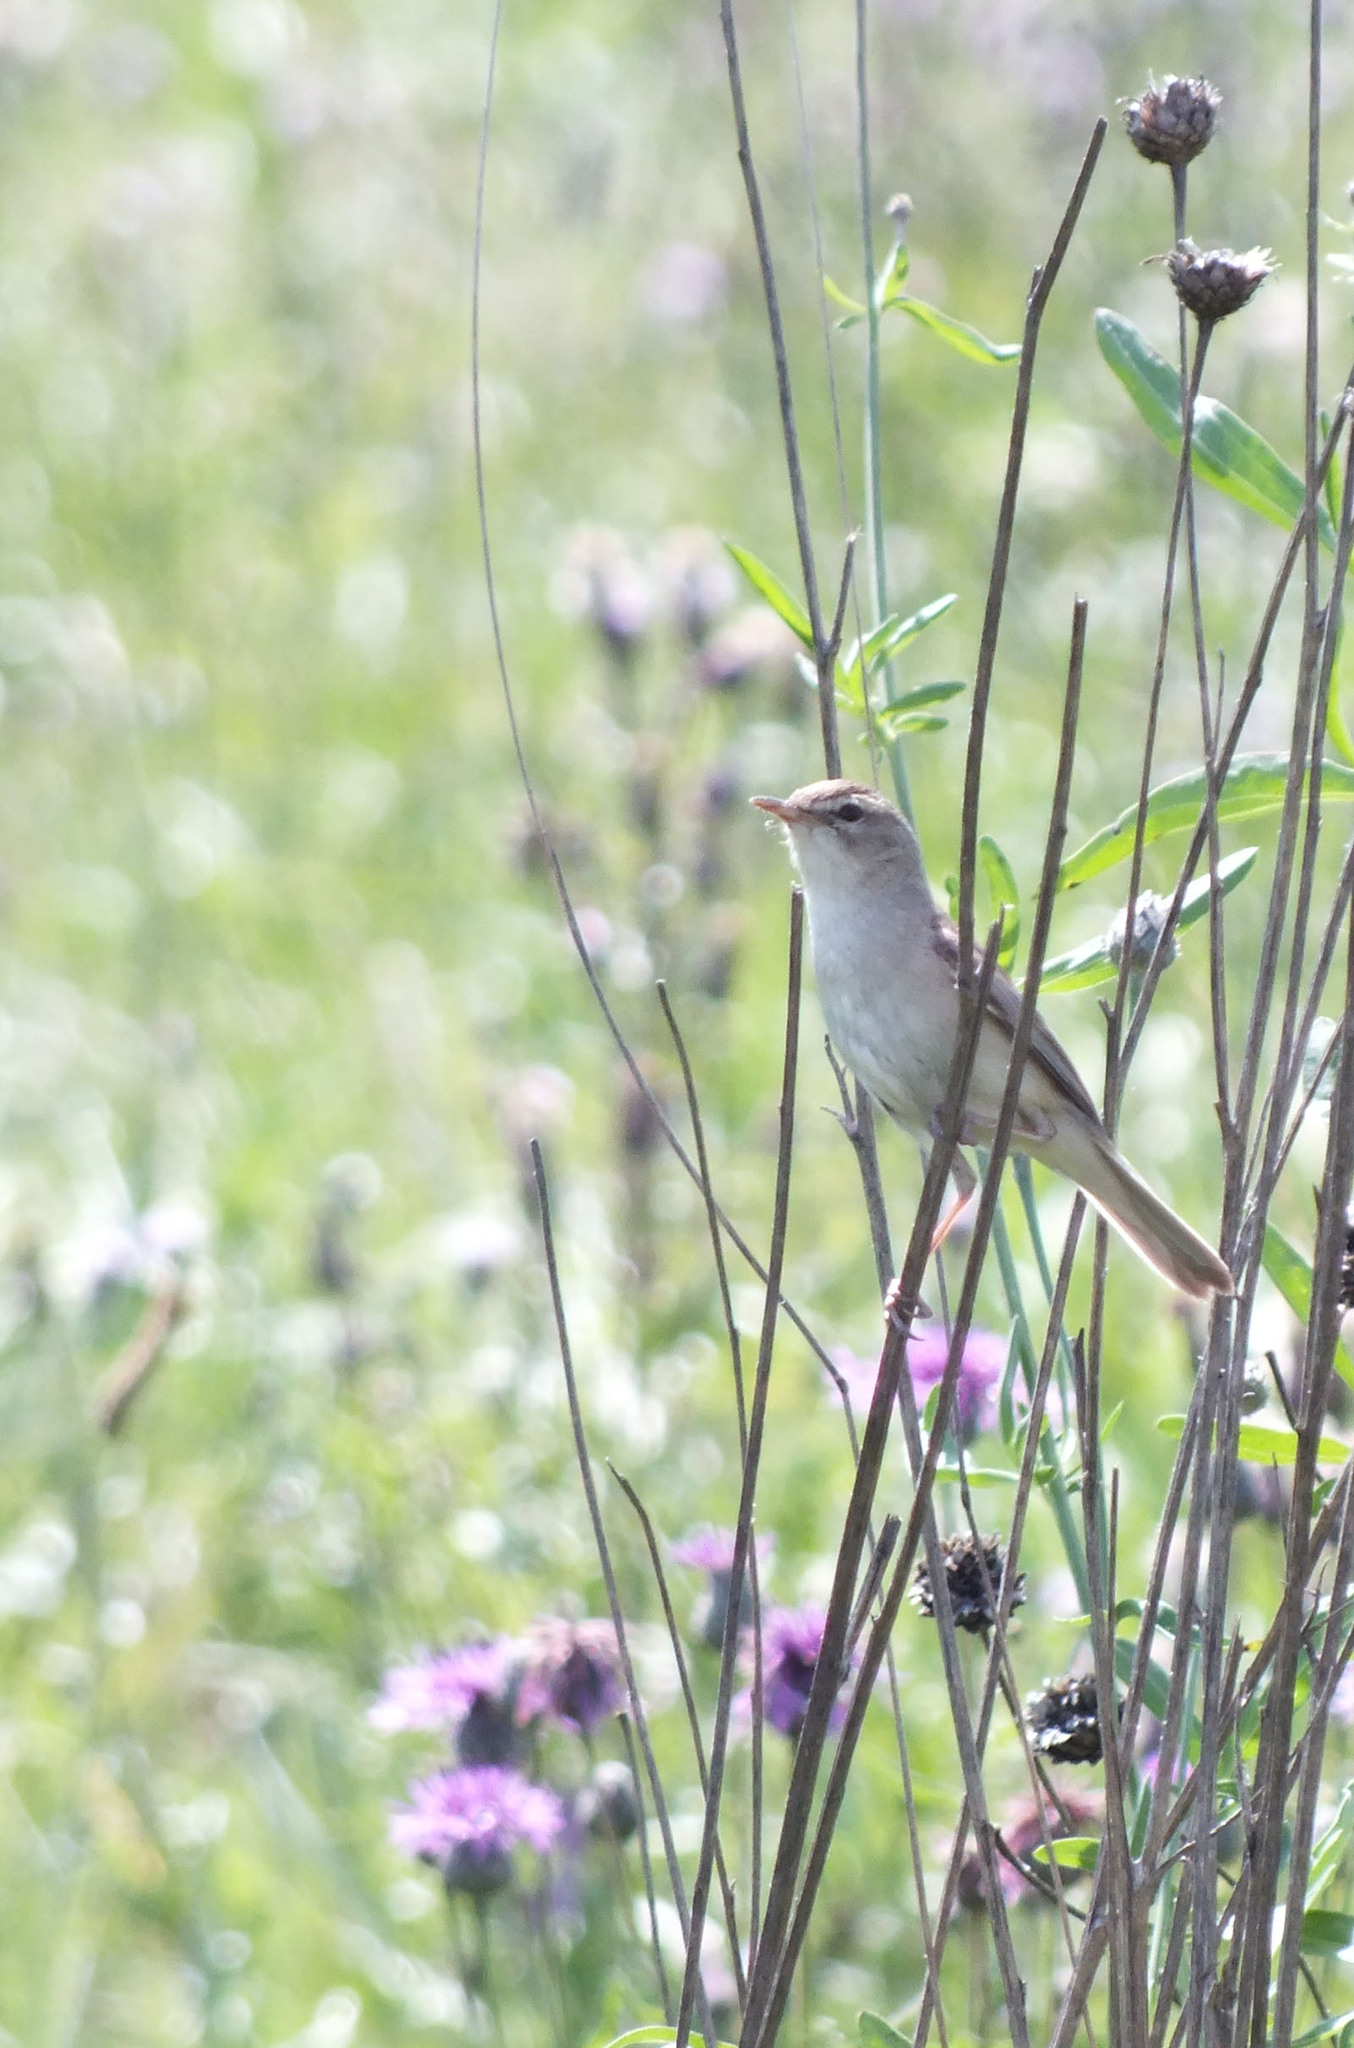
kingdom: Animalia
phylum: Chordata
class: Aves
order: Passeriformes
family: Acrocephalidae
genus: Iduna
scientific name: Iduna caligata
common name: Booted warbler
